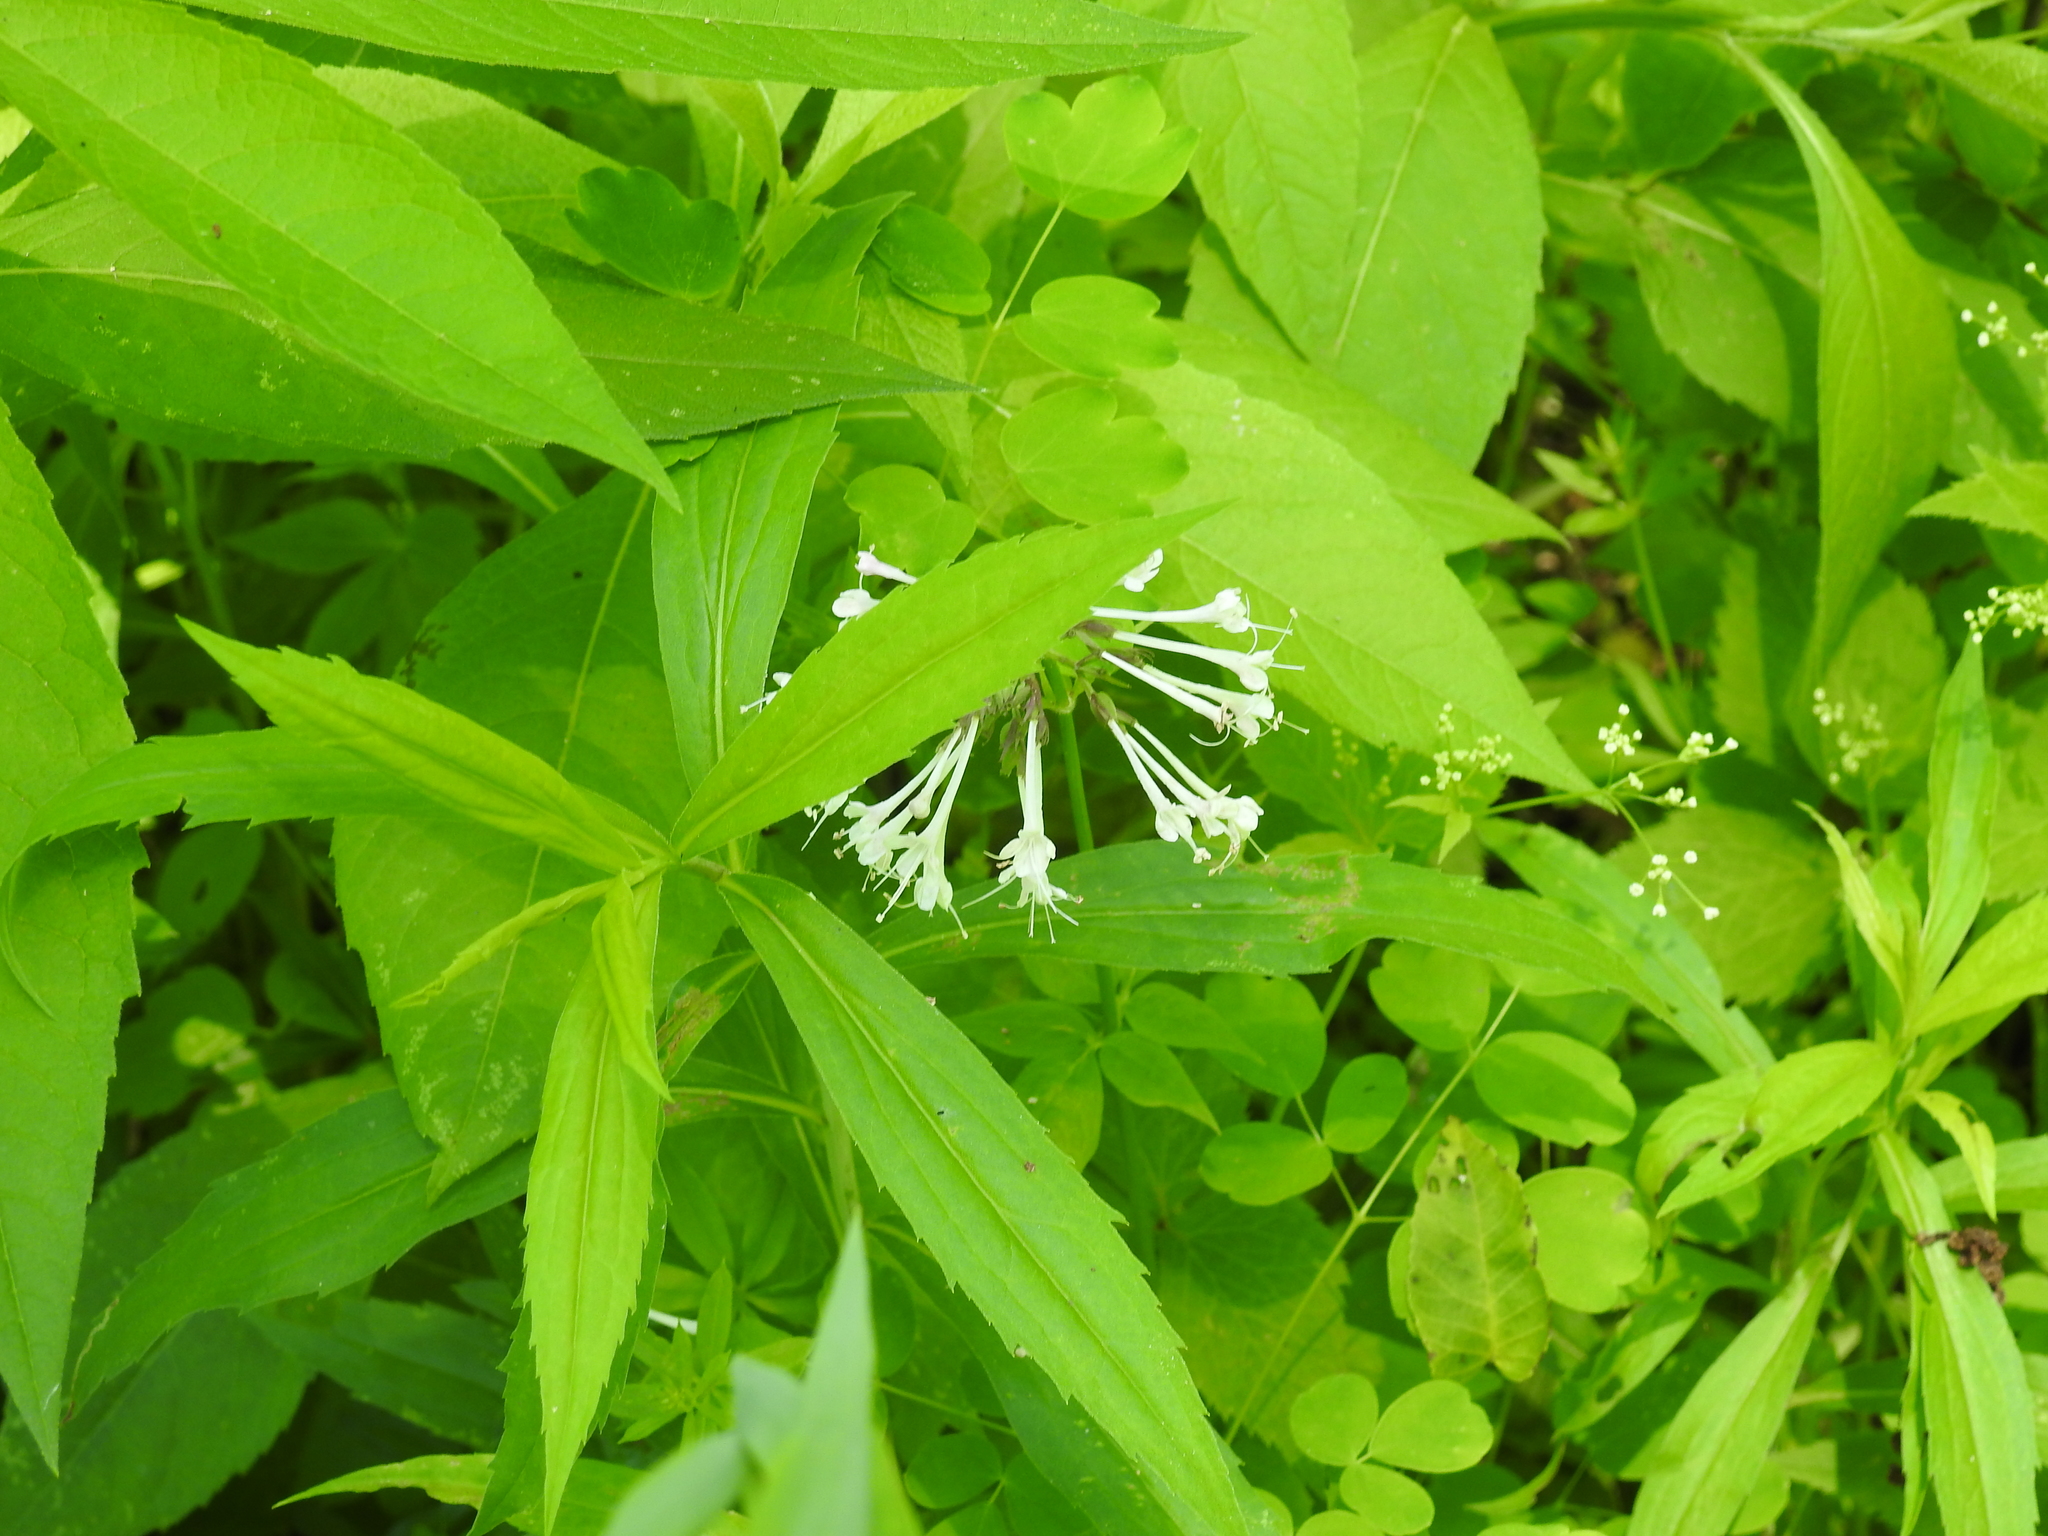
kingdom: Plantae
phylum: Tracheophyta
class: Magnoliopsida
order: Dipsacales
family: Caprifoliaceae
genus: Valeriana
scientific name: Valeriana pauciflora
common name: Long-tube valeriana
